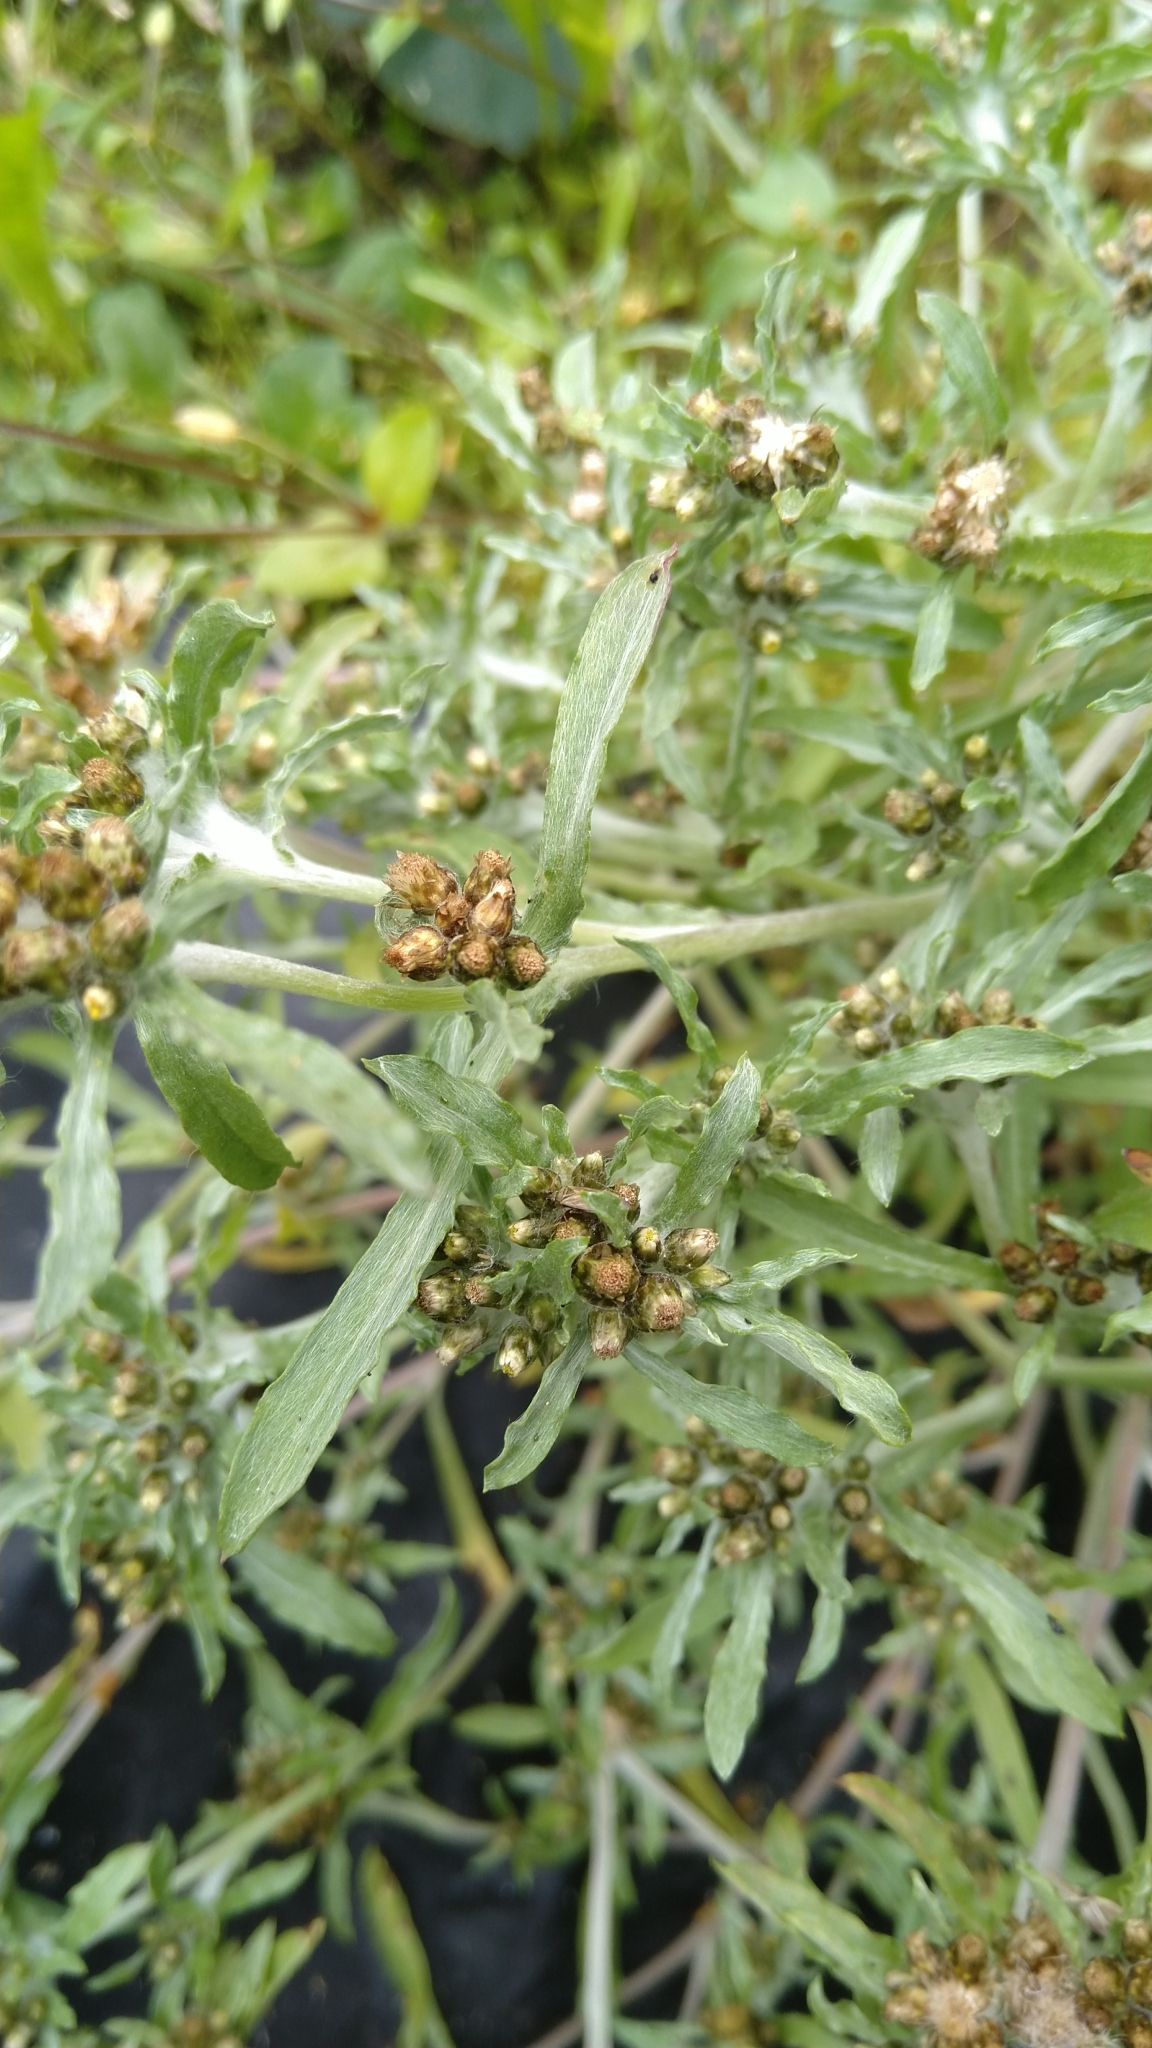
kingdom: Plantae
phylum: Tracheophyta
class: Magnoliopsida
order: Asterales
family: Asteraceae
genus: Gnaphalium
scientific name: Gnaphalium uliginosum
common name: Marsh cudweed
